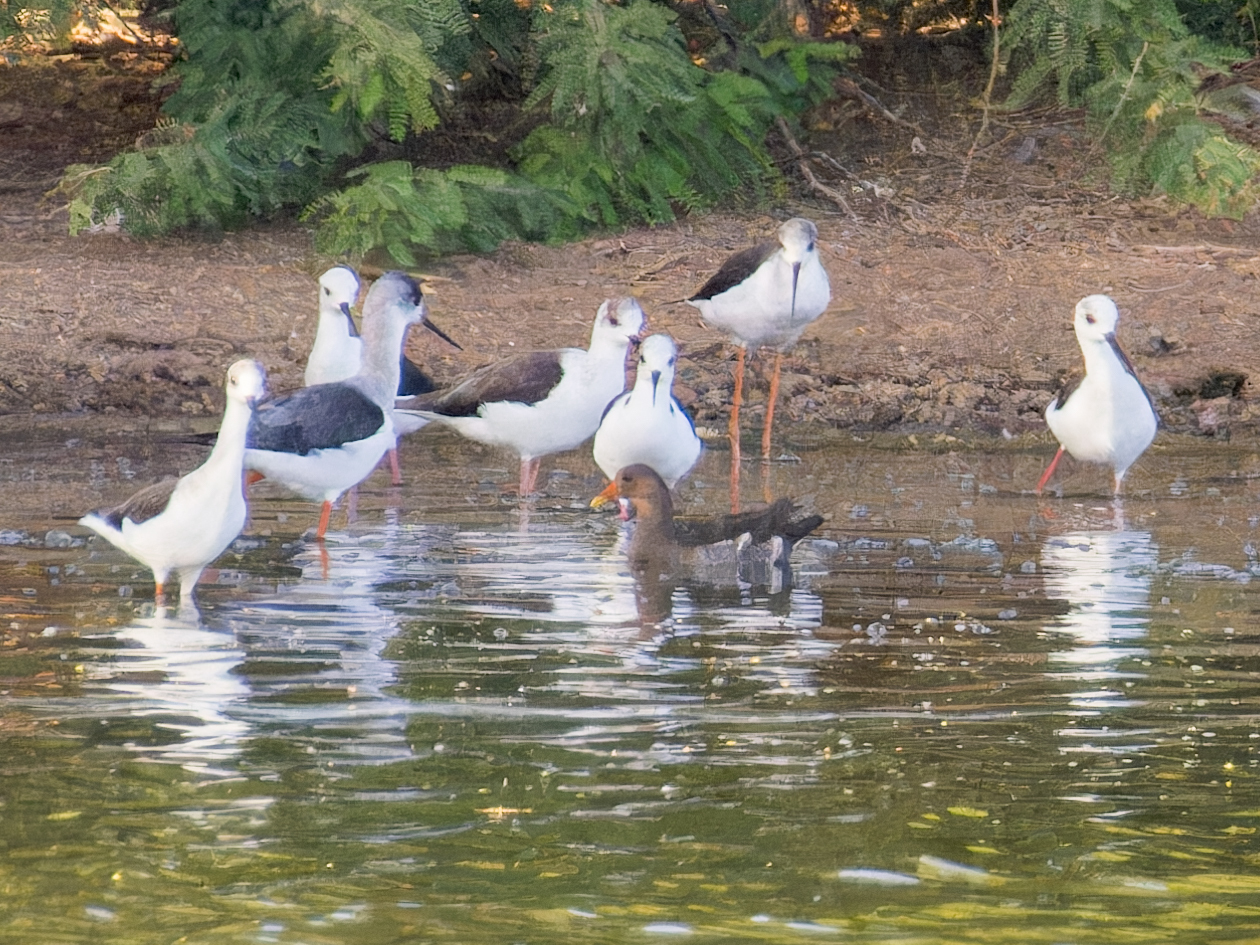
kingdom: Animalia
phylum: Chordata
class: Aves
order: Gruiformes
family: Rallidae
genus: Gallinula
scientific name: Gallinula chloropus
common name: Common moorhen
